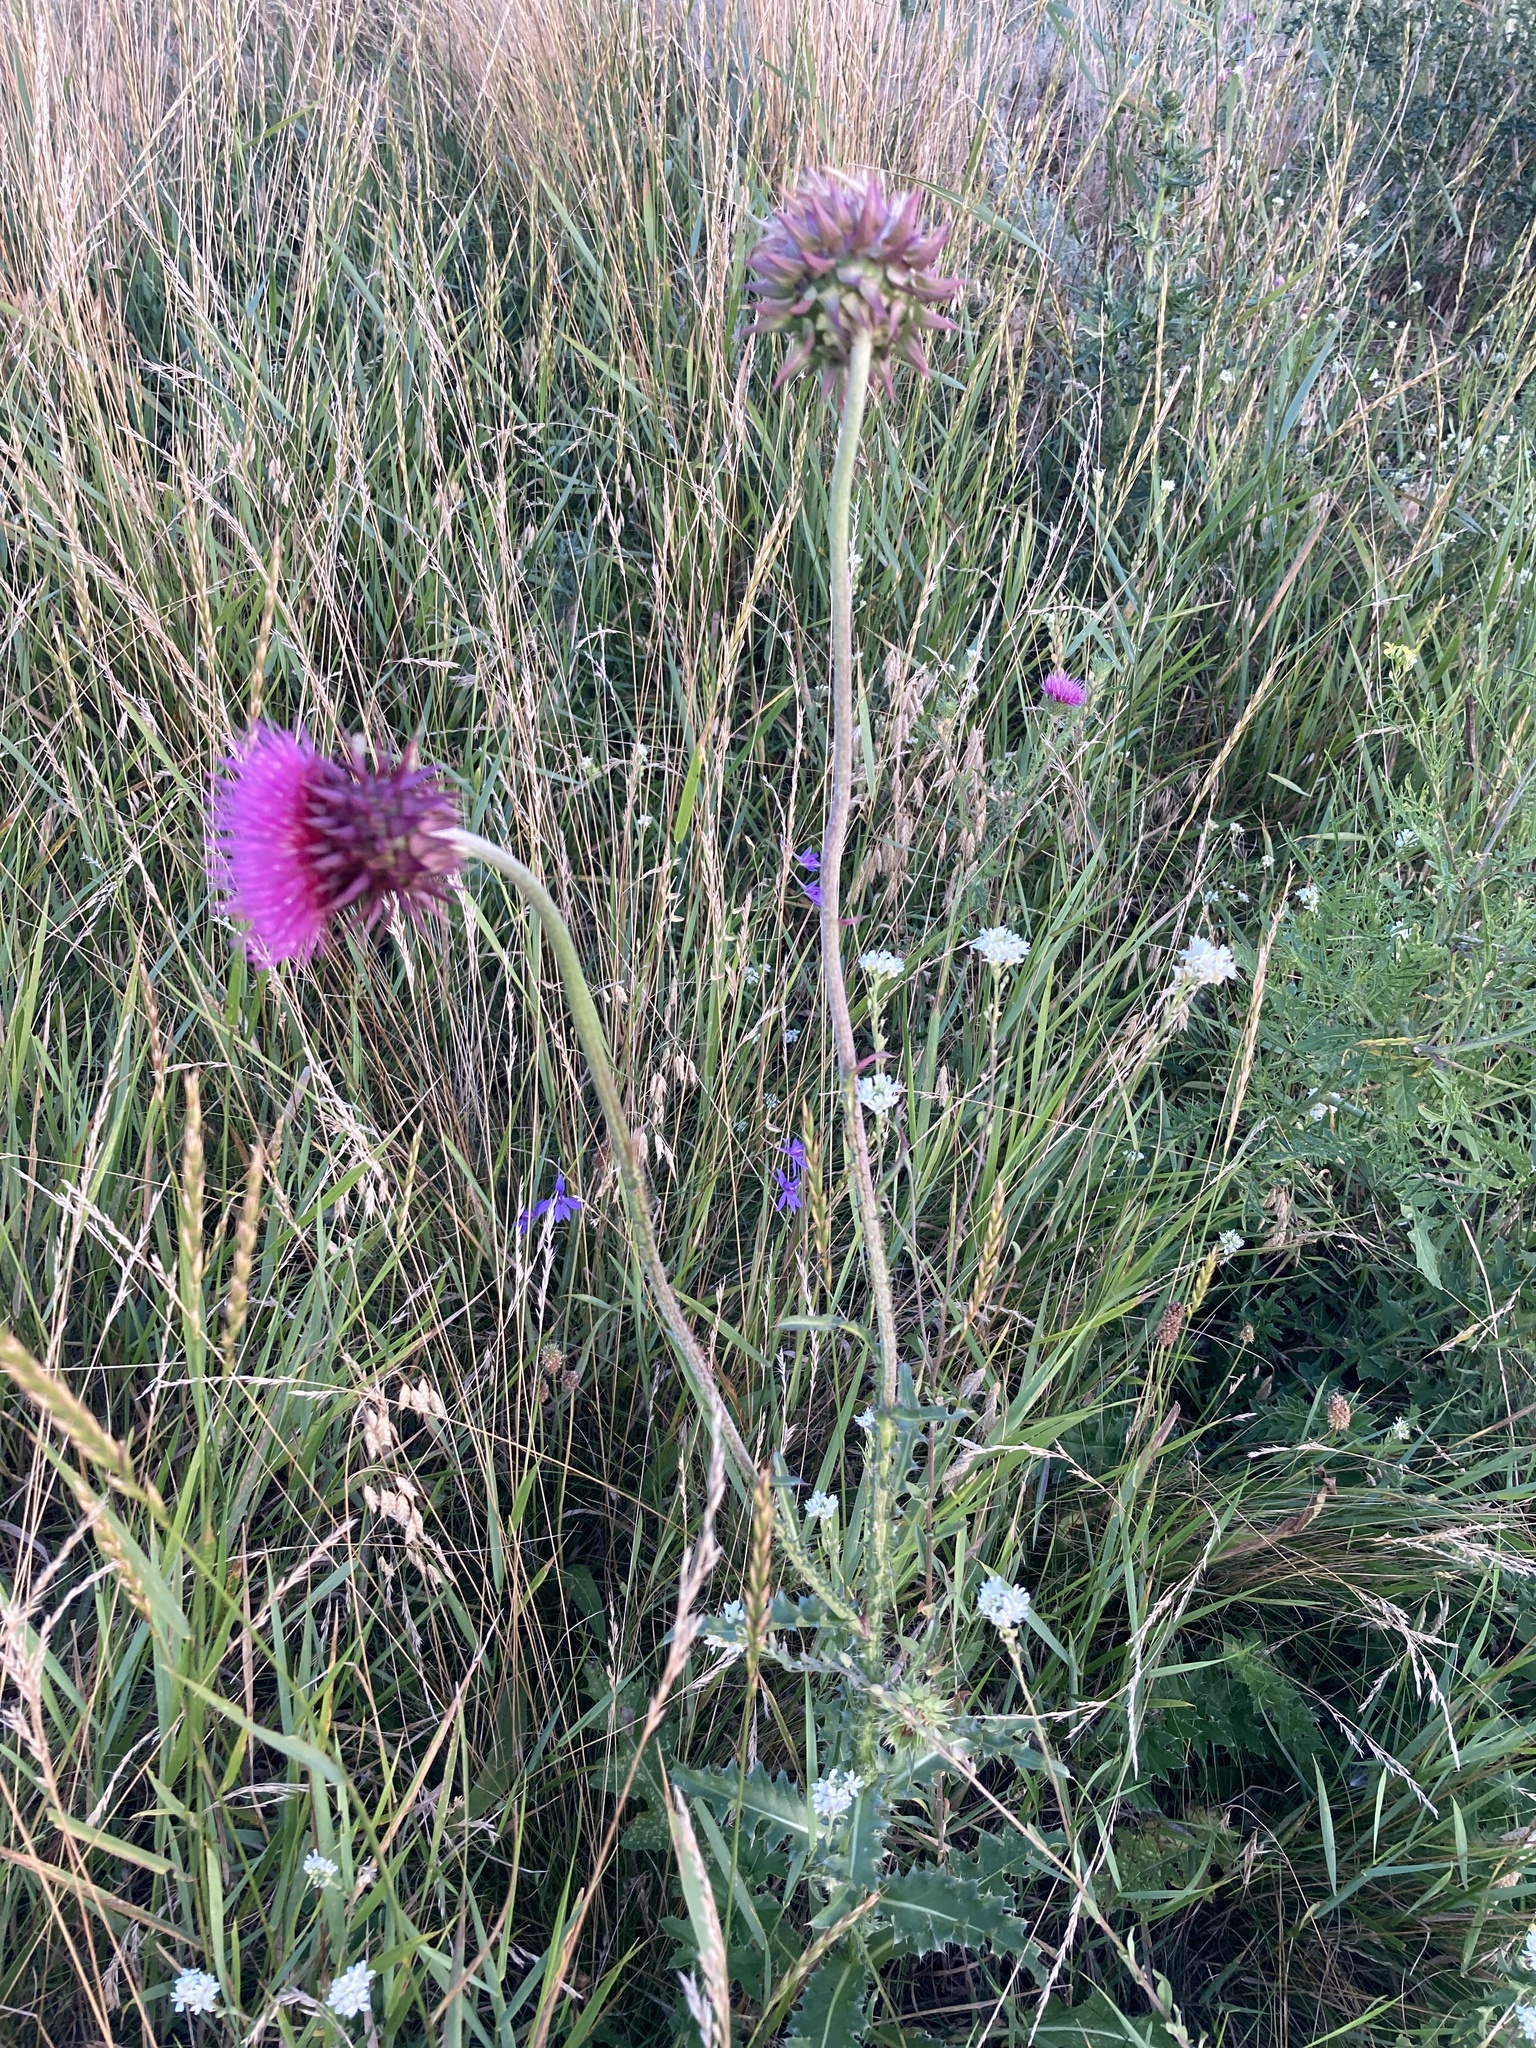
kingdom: Plantae
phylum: Tracheophyta
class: Magnoliopsida
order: Asterales
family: Asteraceae
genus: Carduus
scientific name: Carduus nutans
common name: Musk thistle
